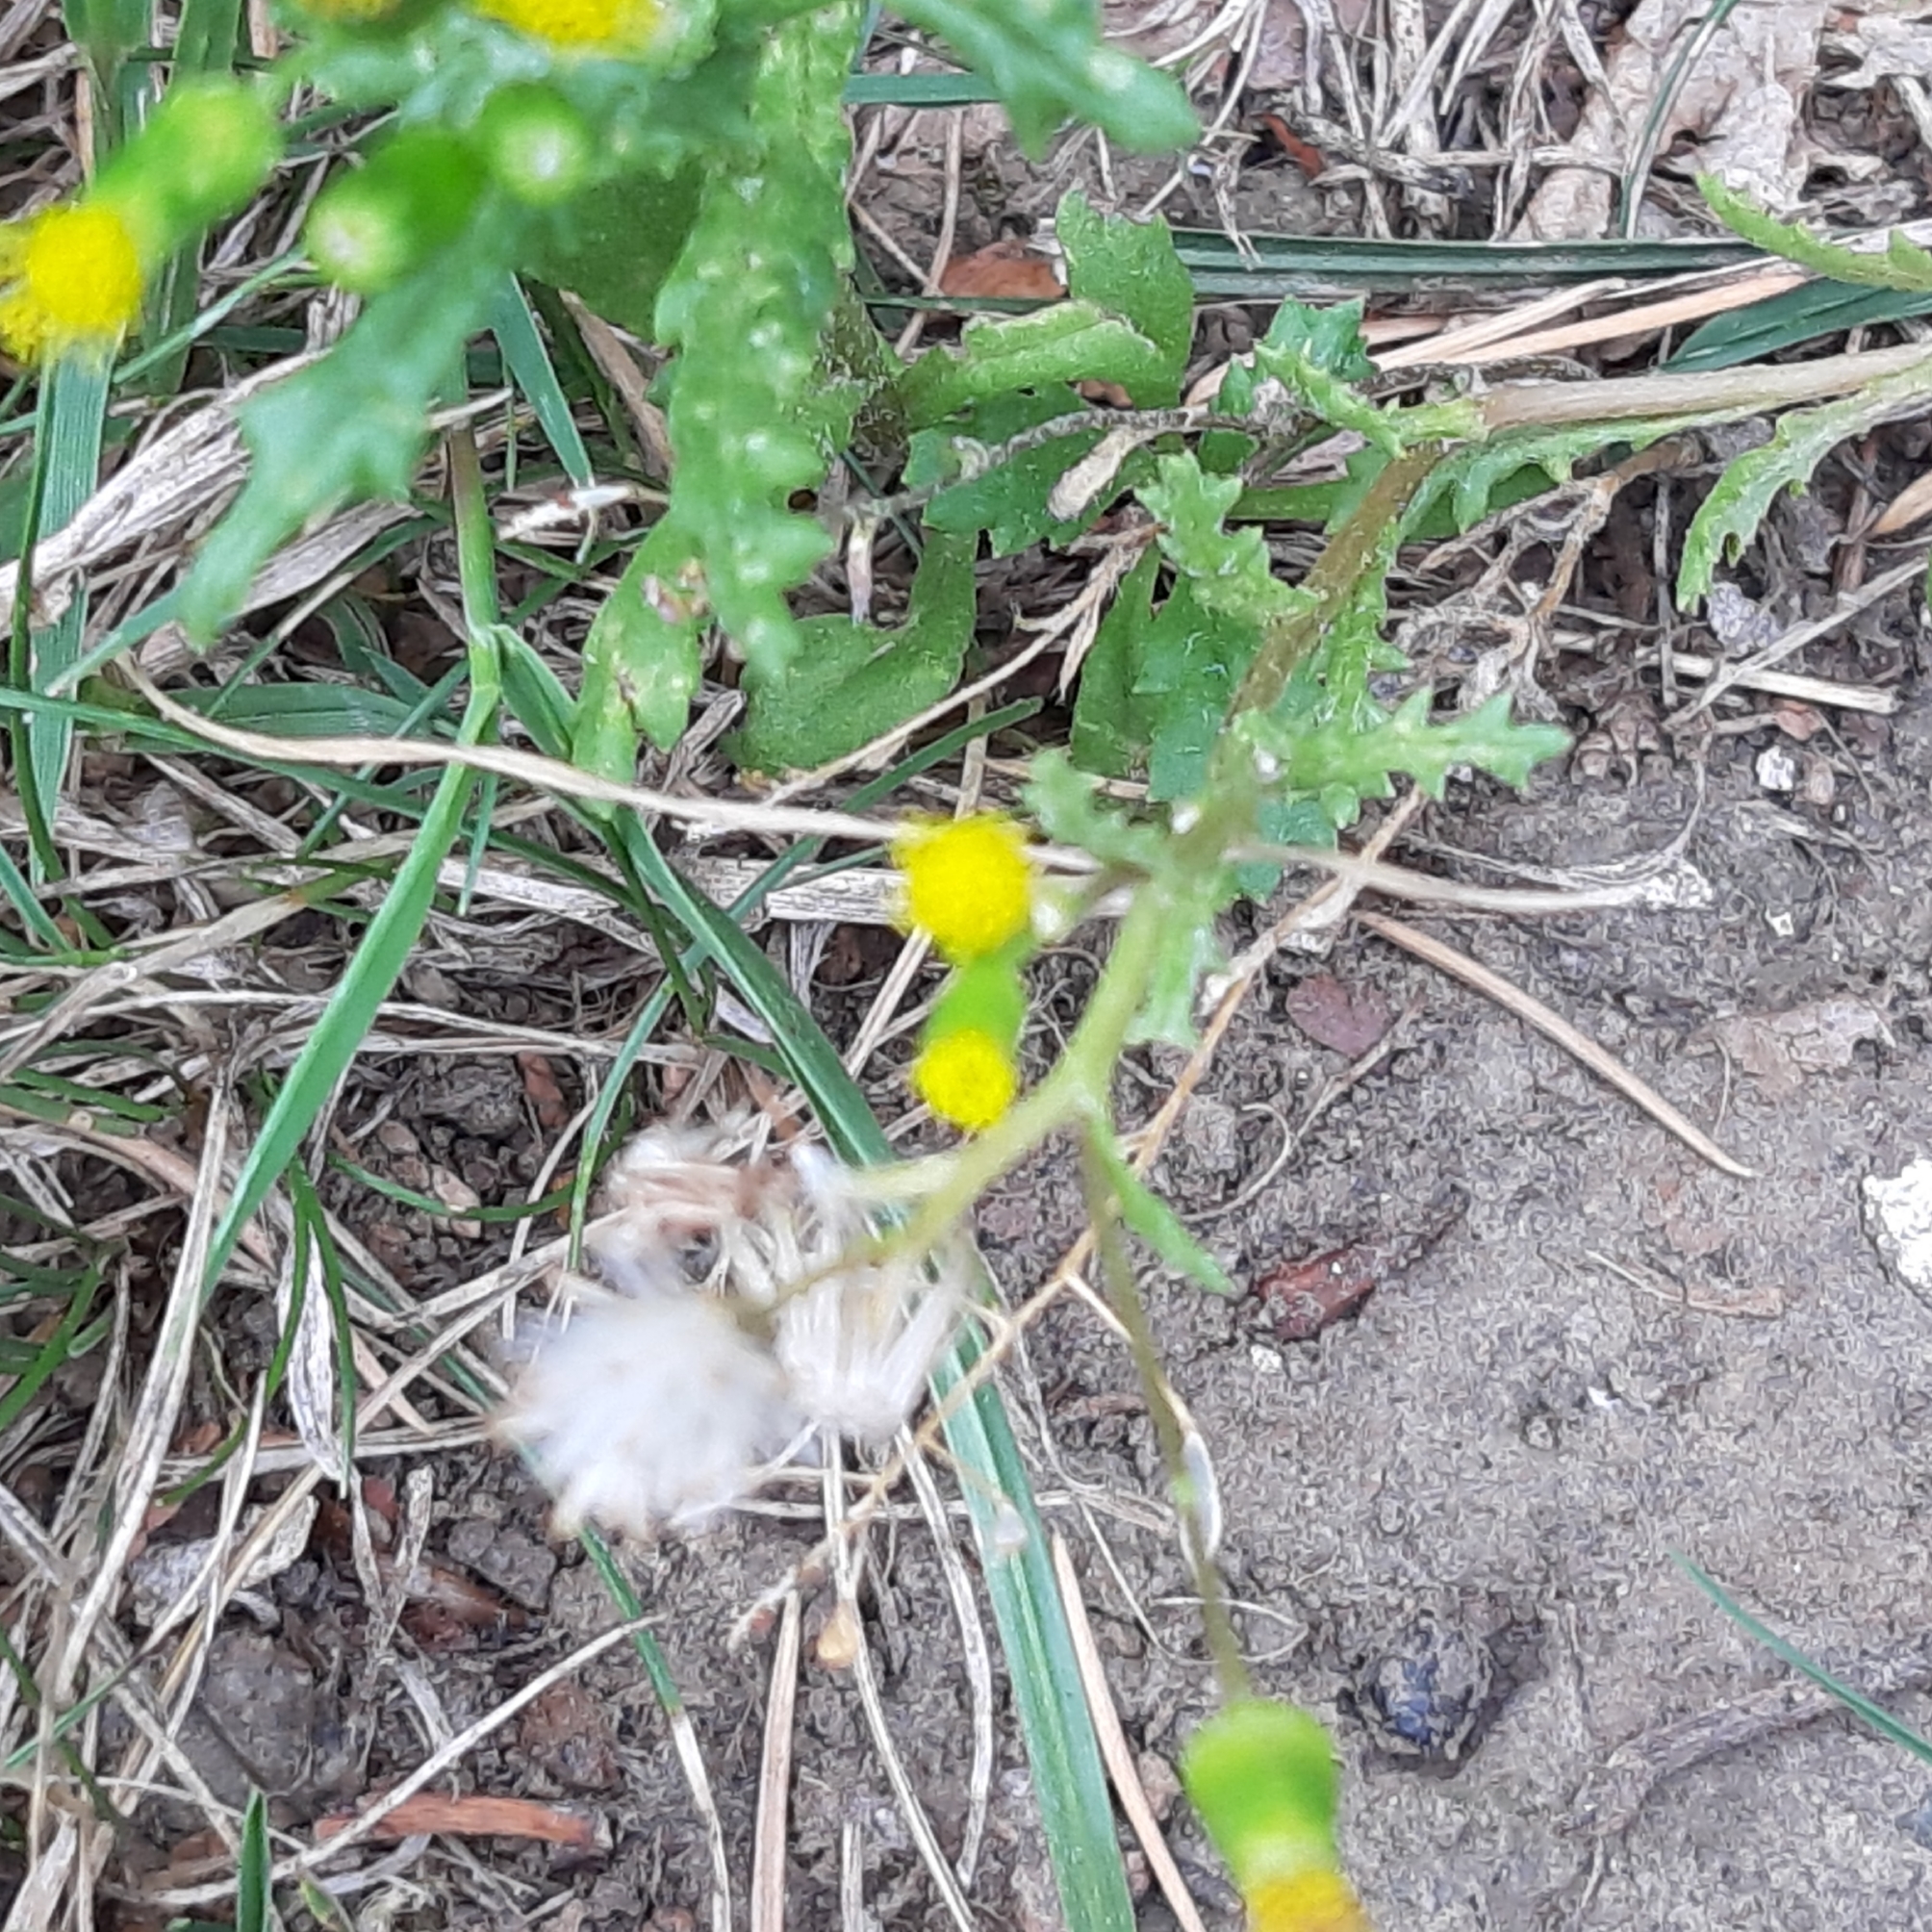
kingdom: Plantae
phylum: Tracheophyta
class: Magnoliopsida
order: Asterales
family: Asteraceae
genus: Senecio
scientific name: Senecio vulgaris
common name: Old-man-in-the-spring
